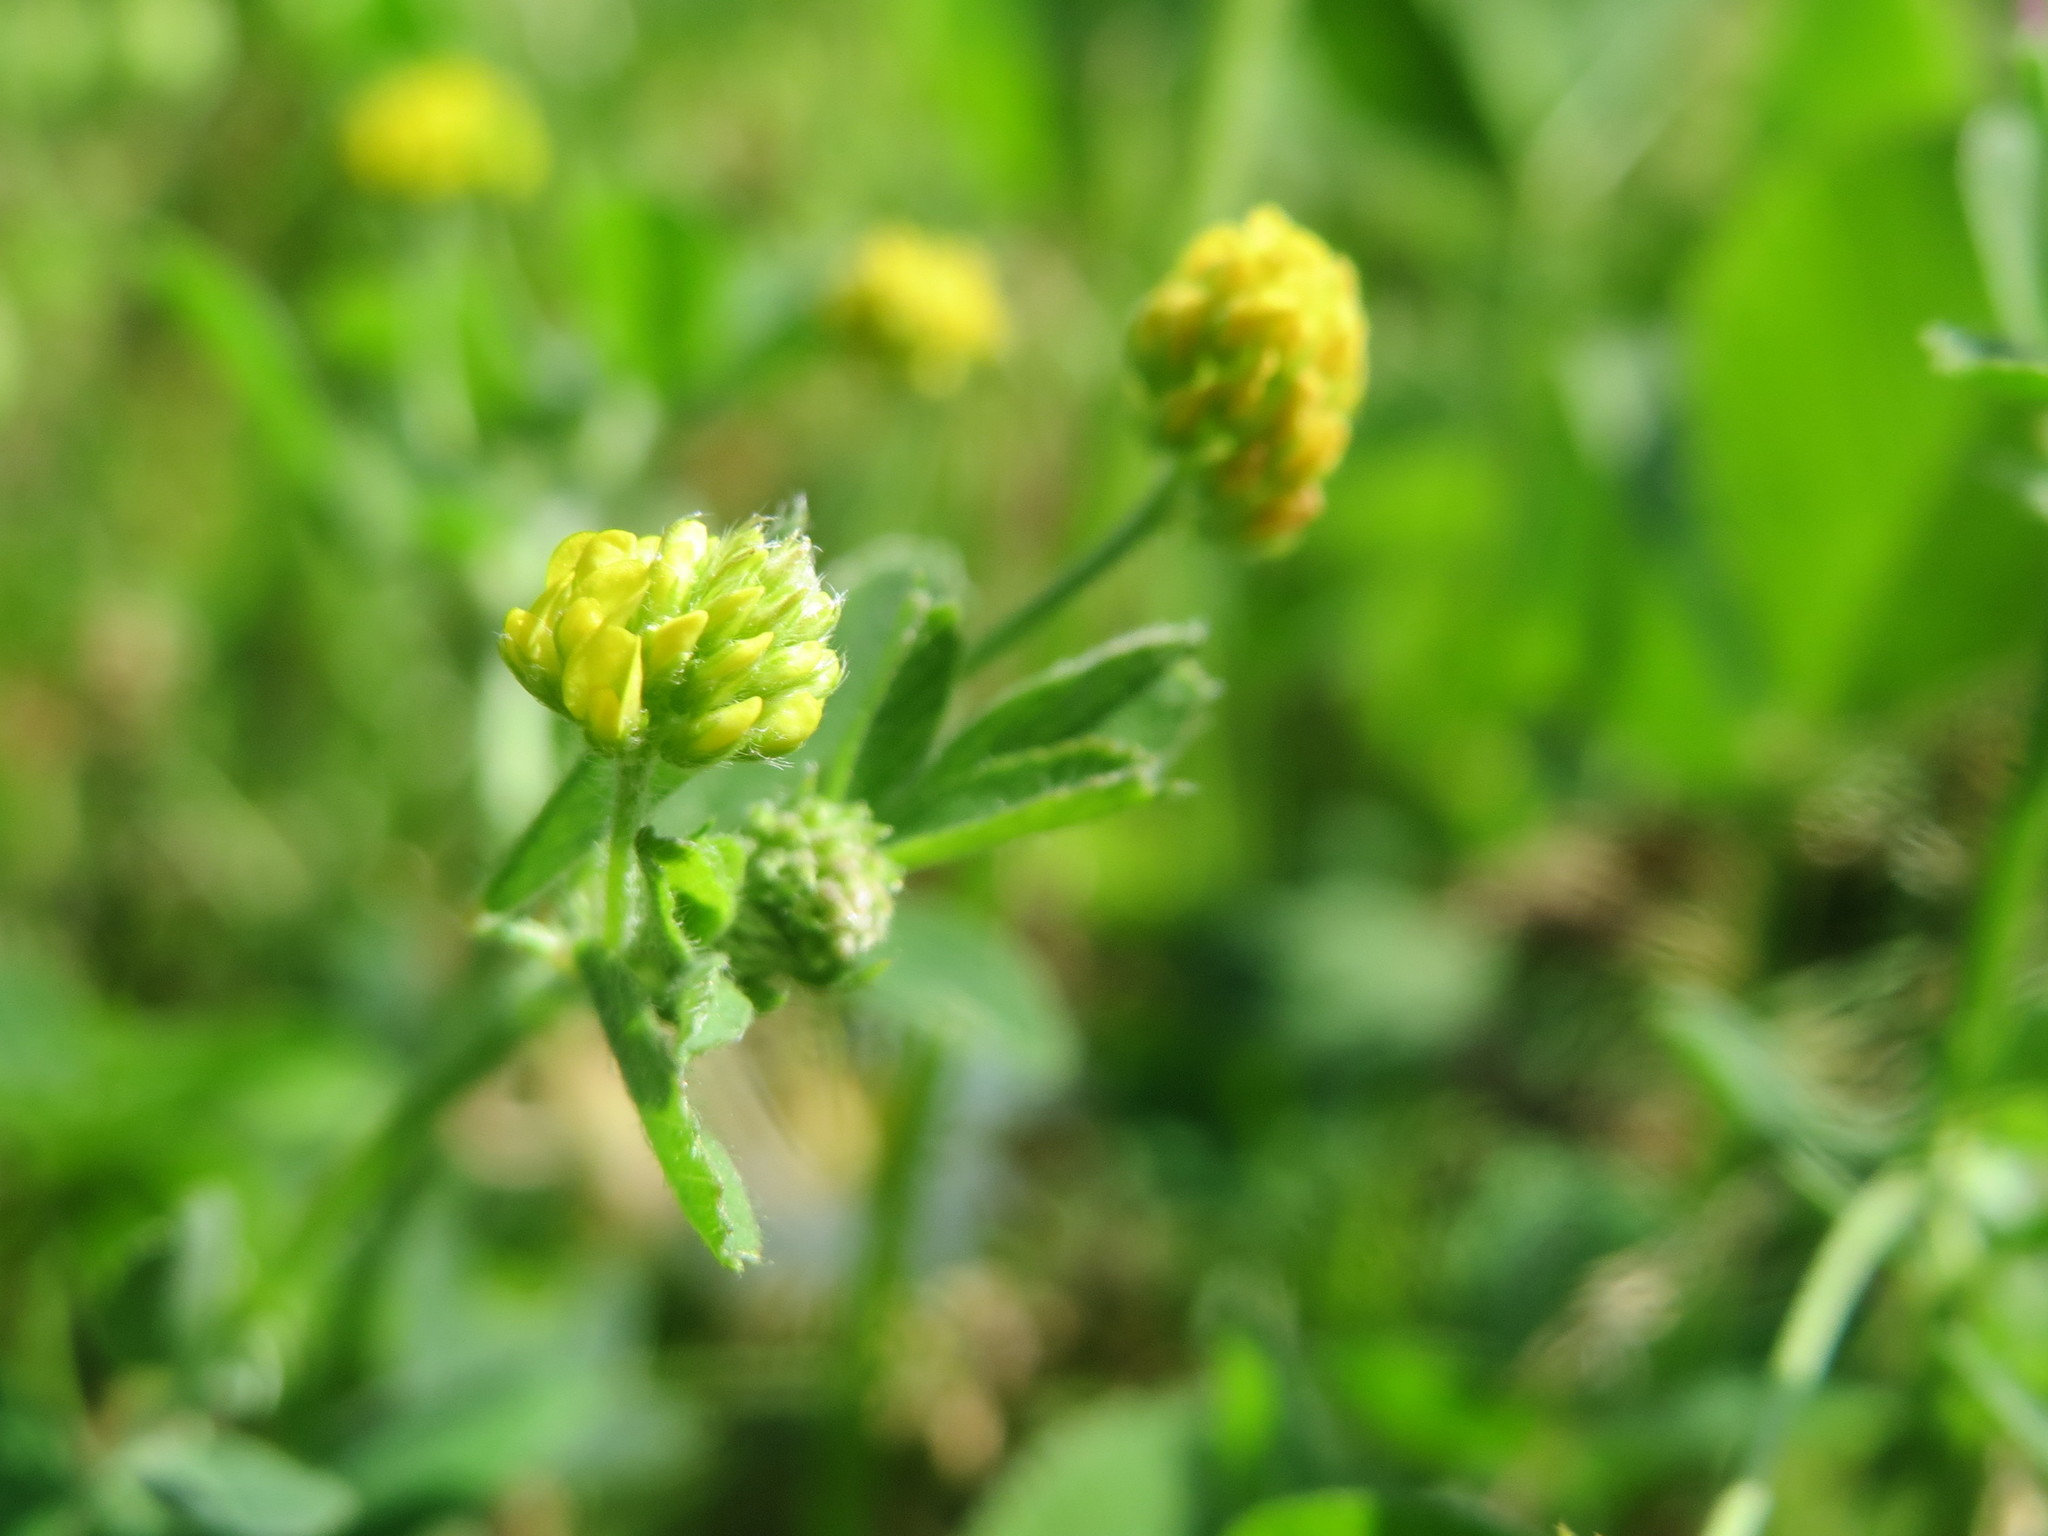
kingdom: Plantae
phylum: Tracheophyta
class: Magnoliopsida
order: Fabales
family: Fabaceae
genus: Medicago
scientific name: Medicago lupulina
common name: Black medick
